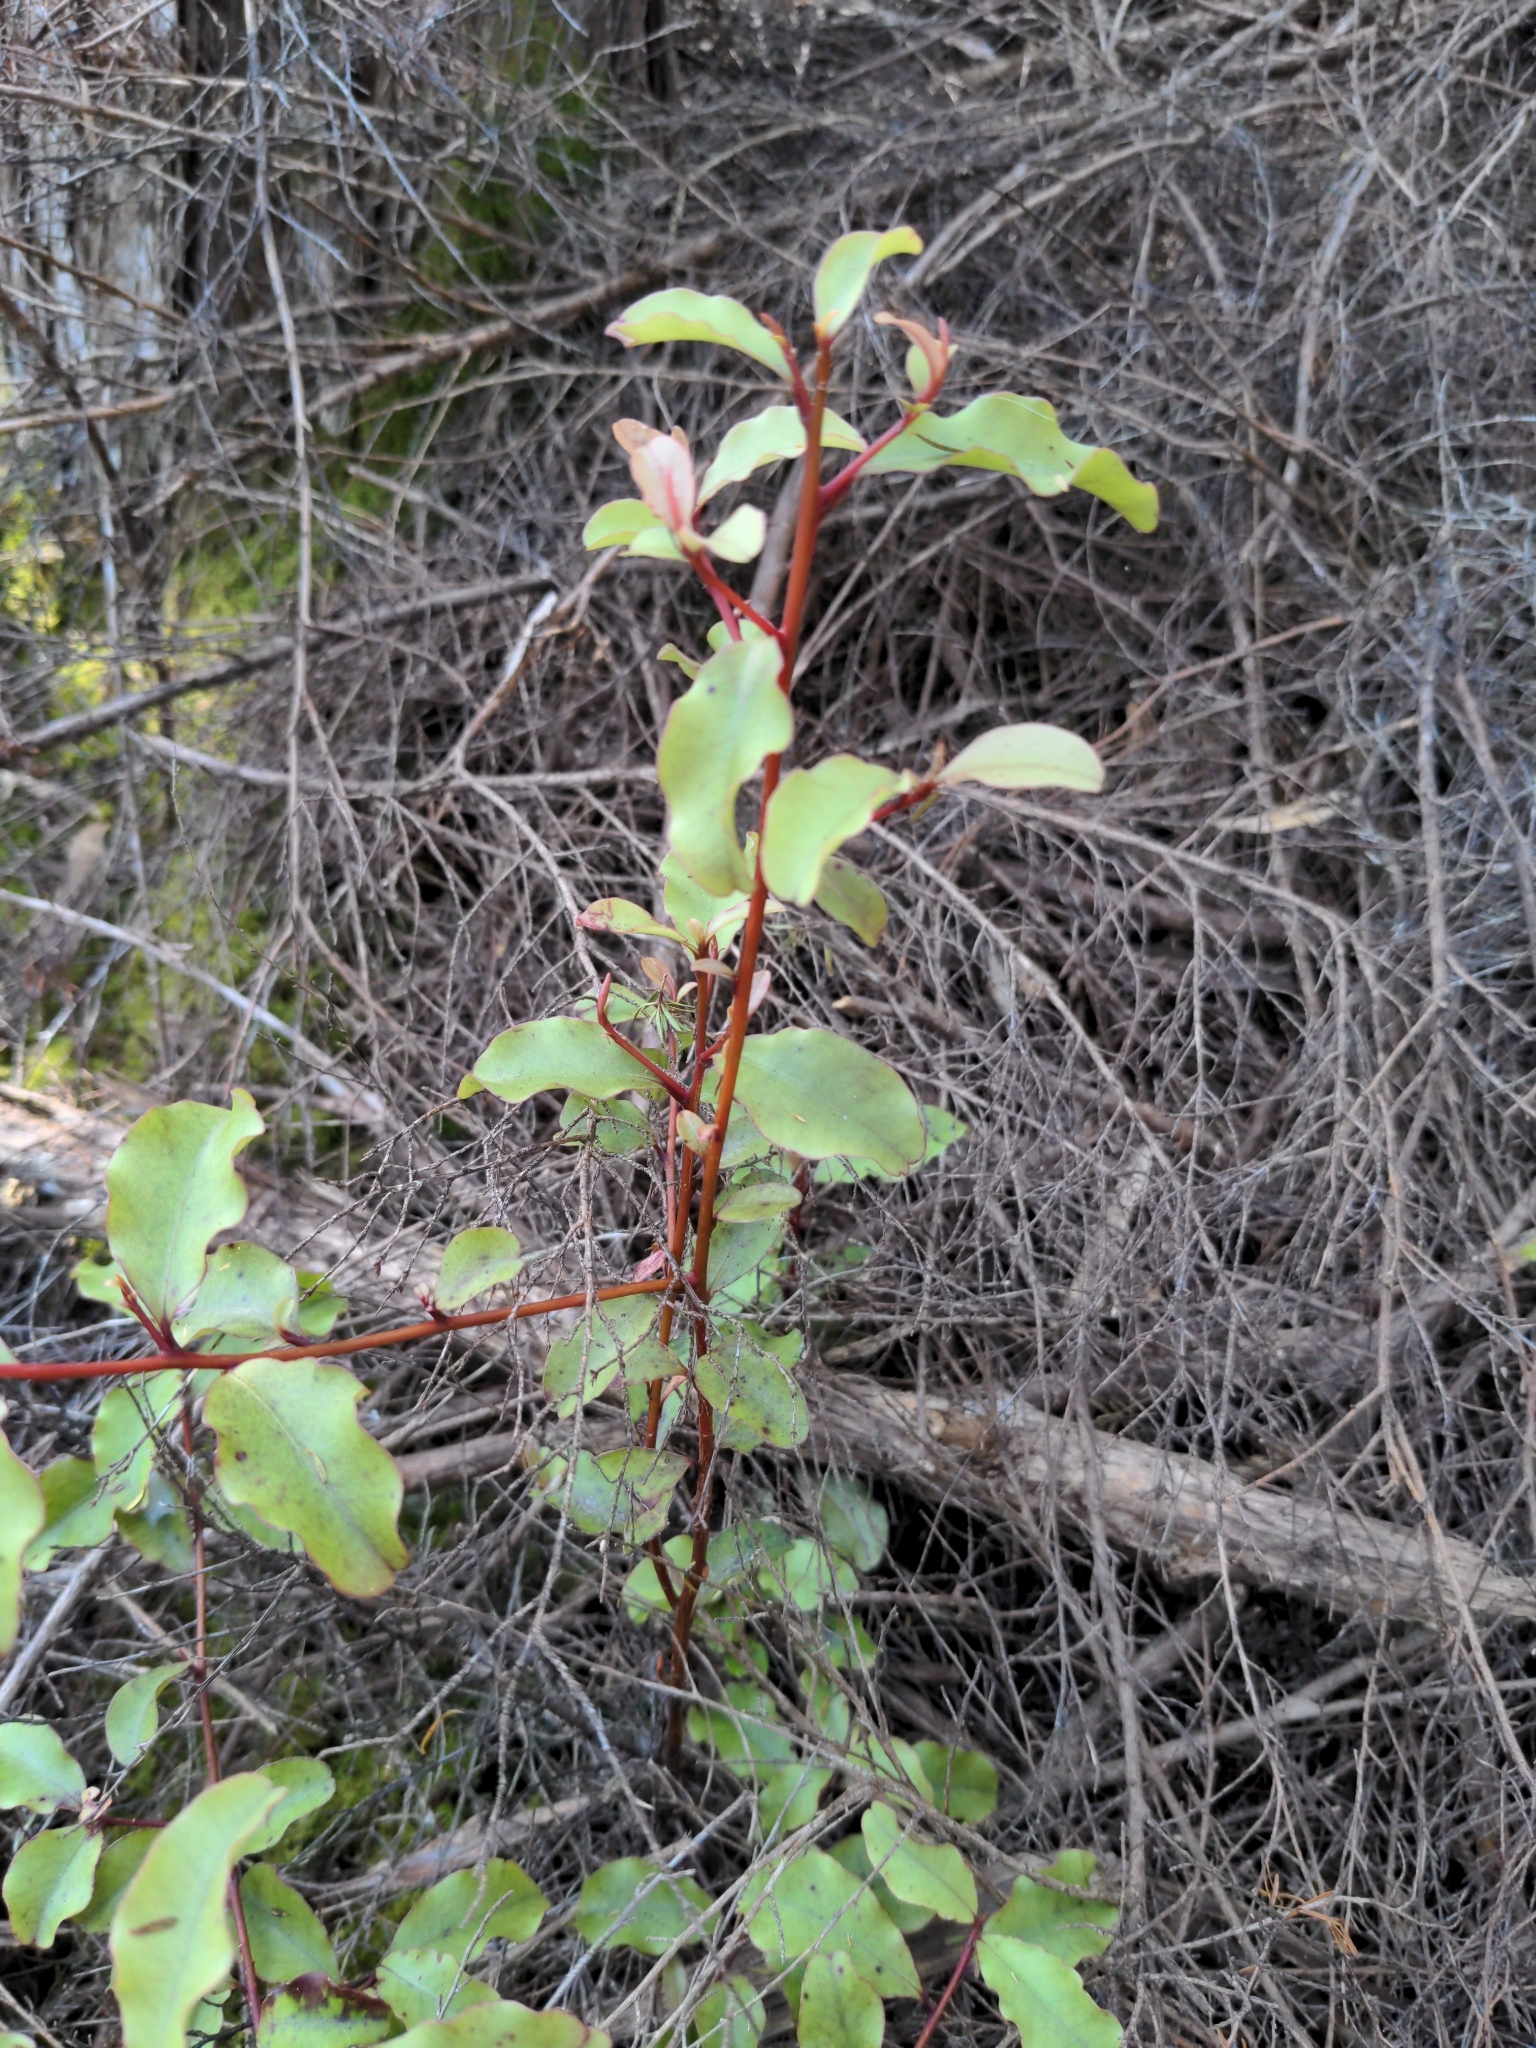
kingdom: Plantae
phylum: Tracheophyta
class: Magnoliopsida
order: Ericales
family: Primulaceae
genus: Myrsine
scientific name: Myrsine australis
